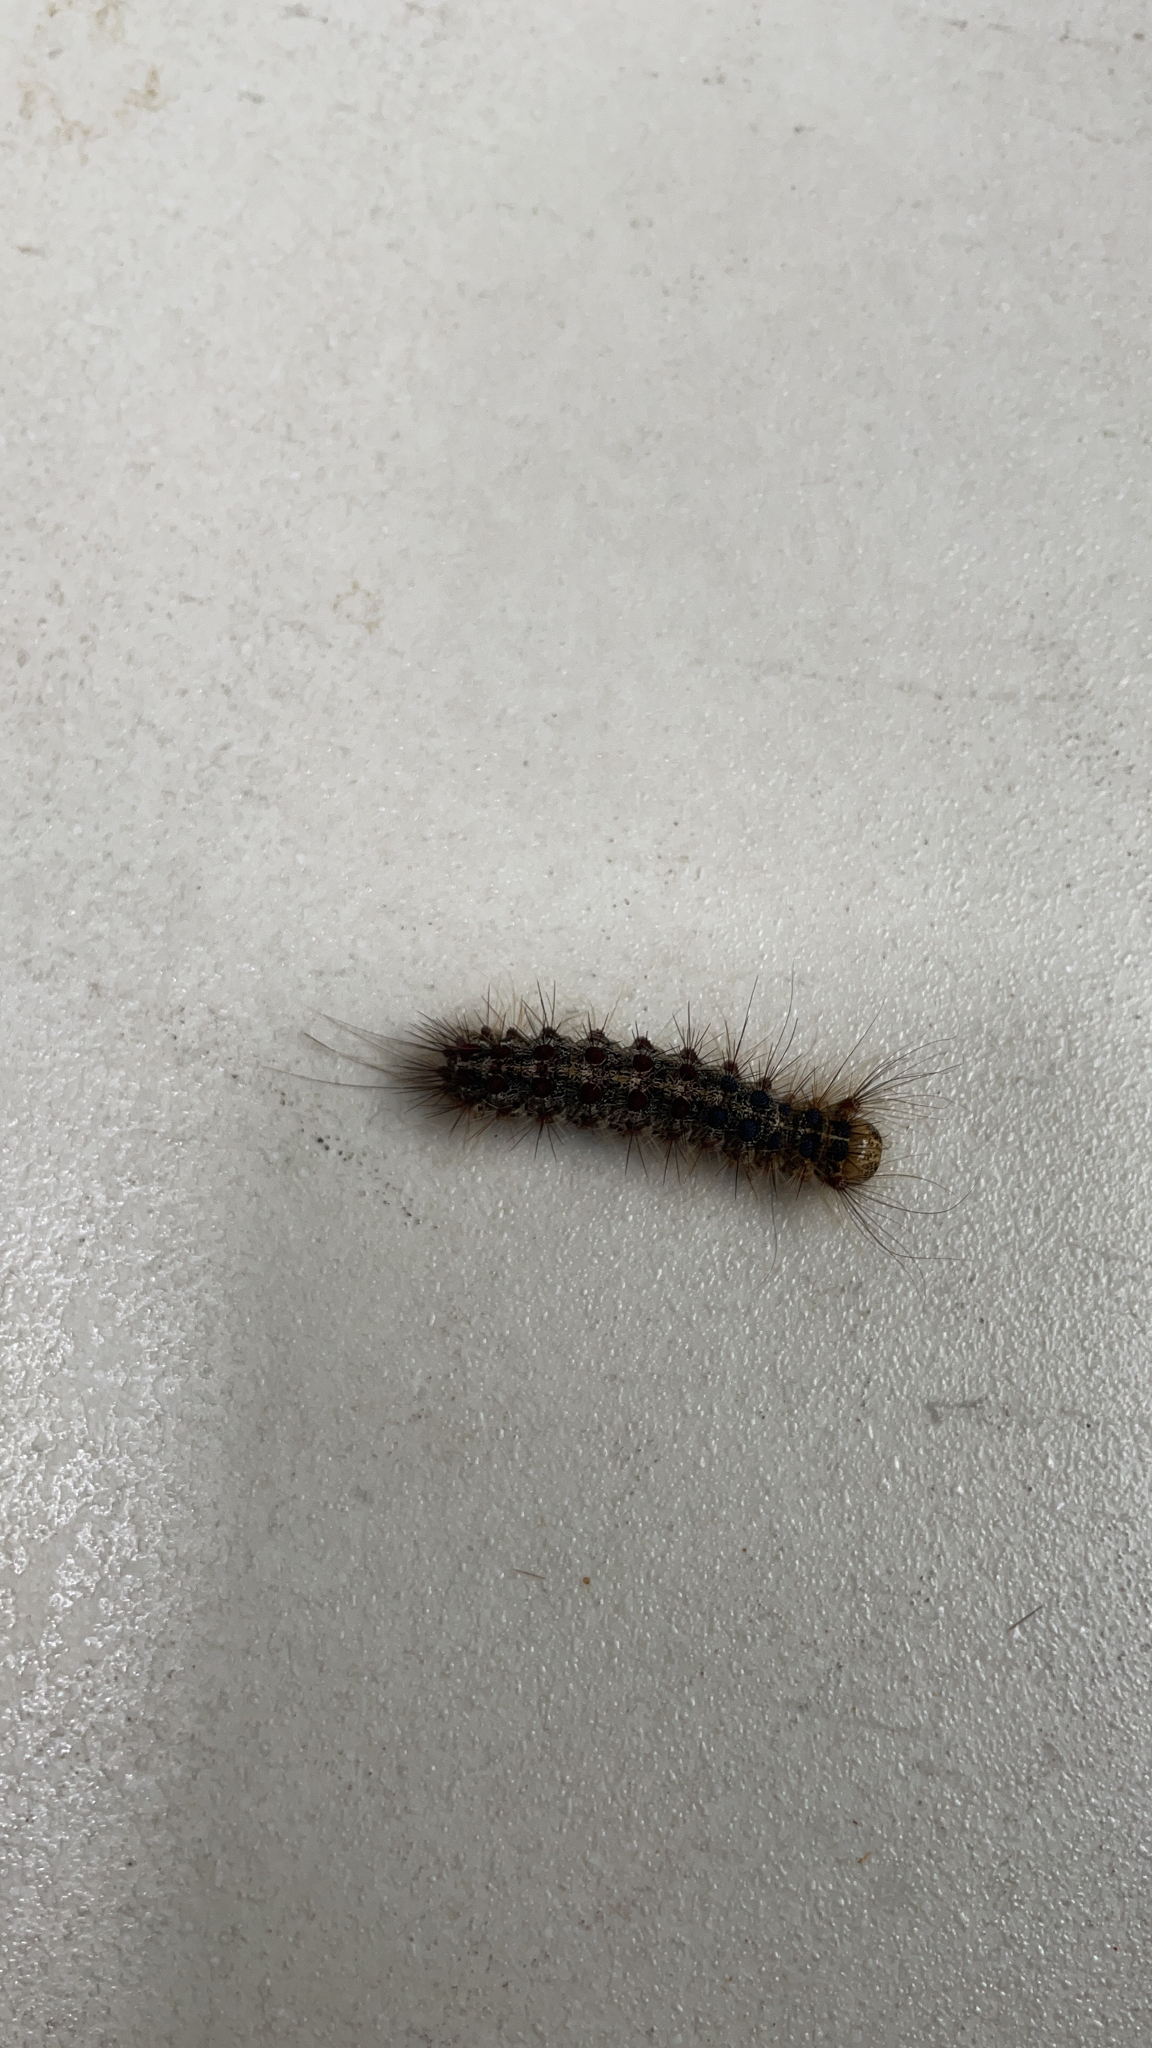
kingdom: Animalia
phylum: Arthropoda
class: Insecta
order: Lepidoptera
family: Erebidae
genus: Lymantria
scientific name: Lymantria dispar
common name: Gypsy moth
